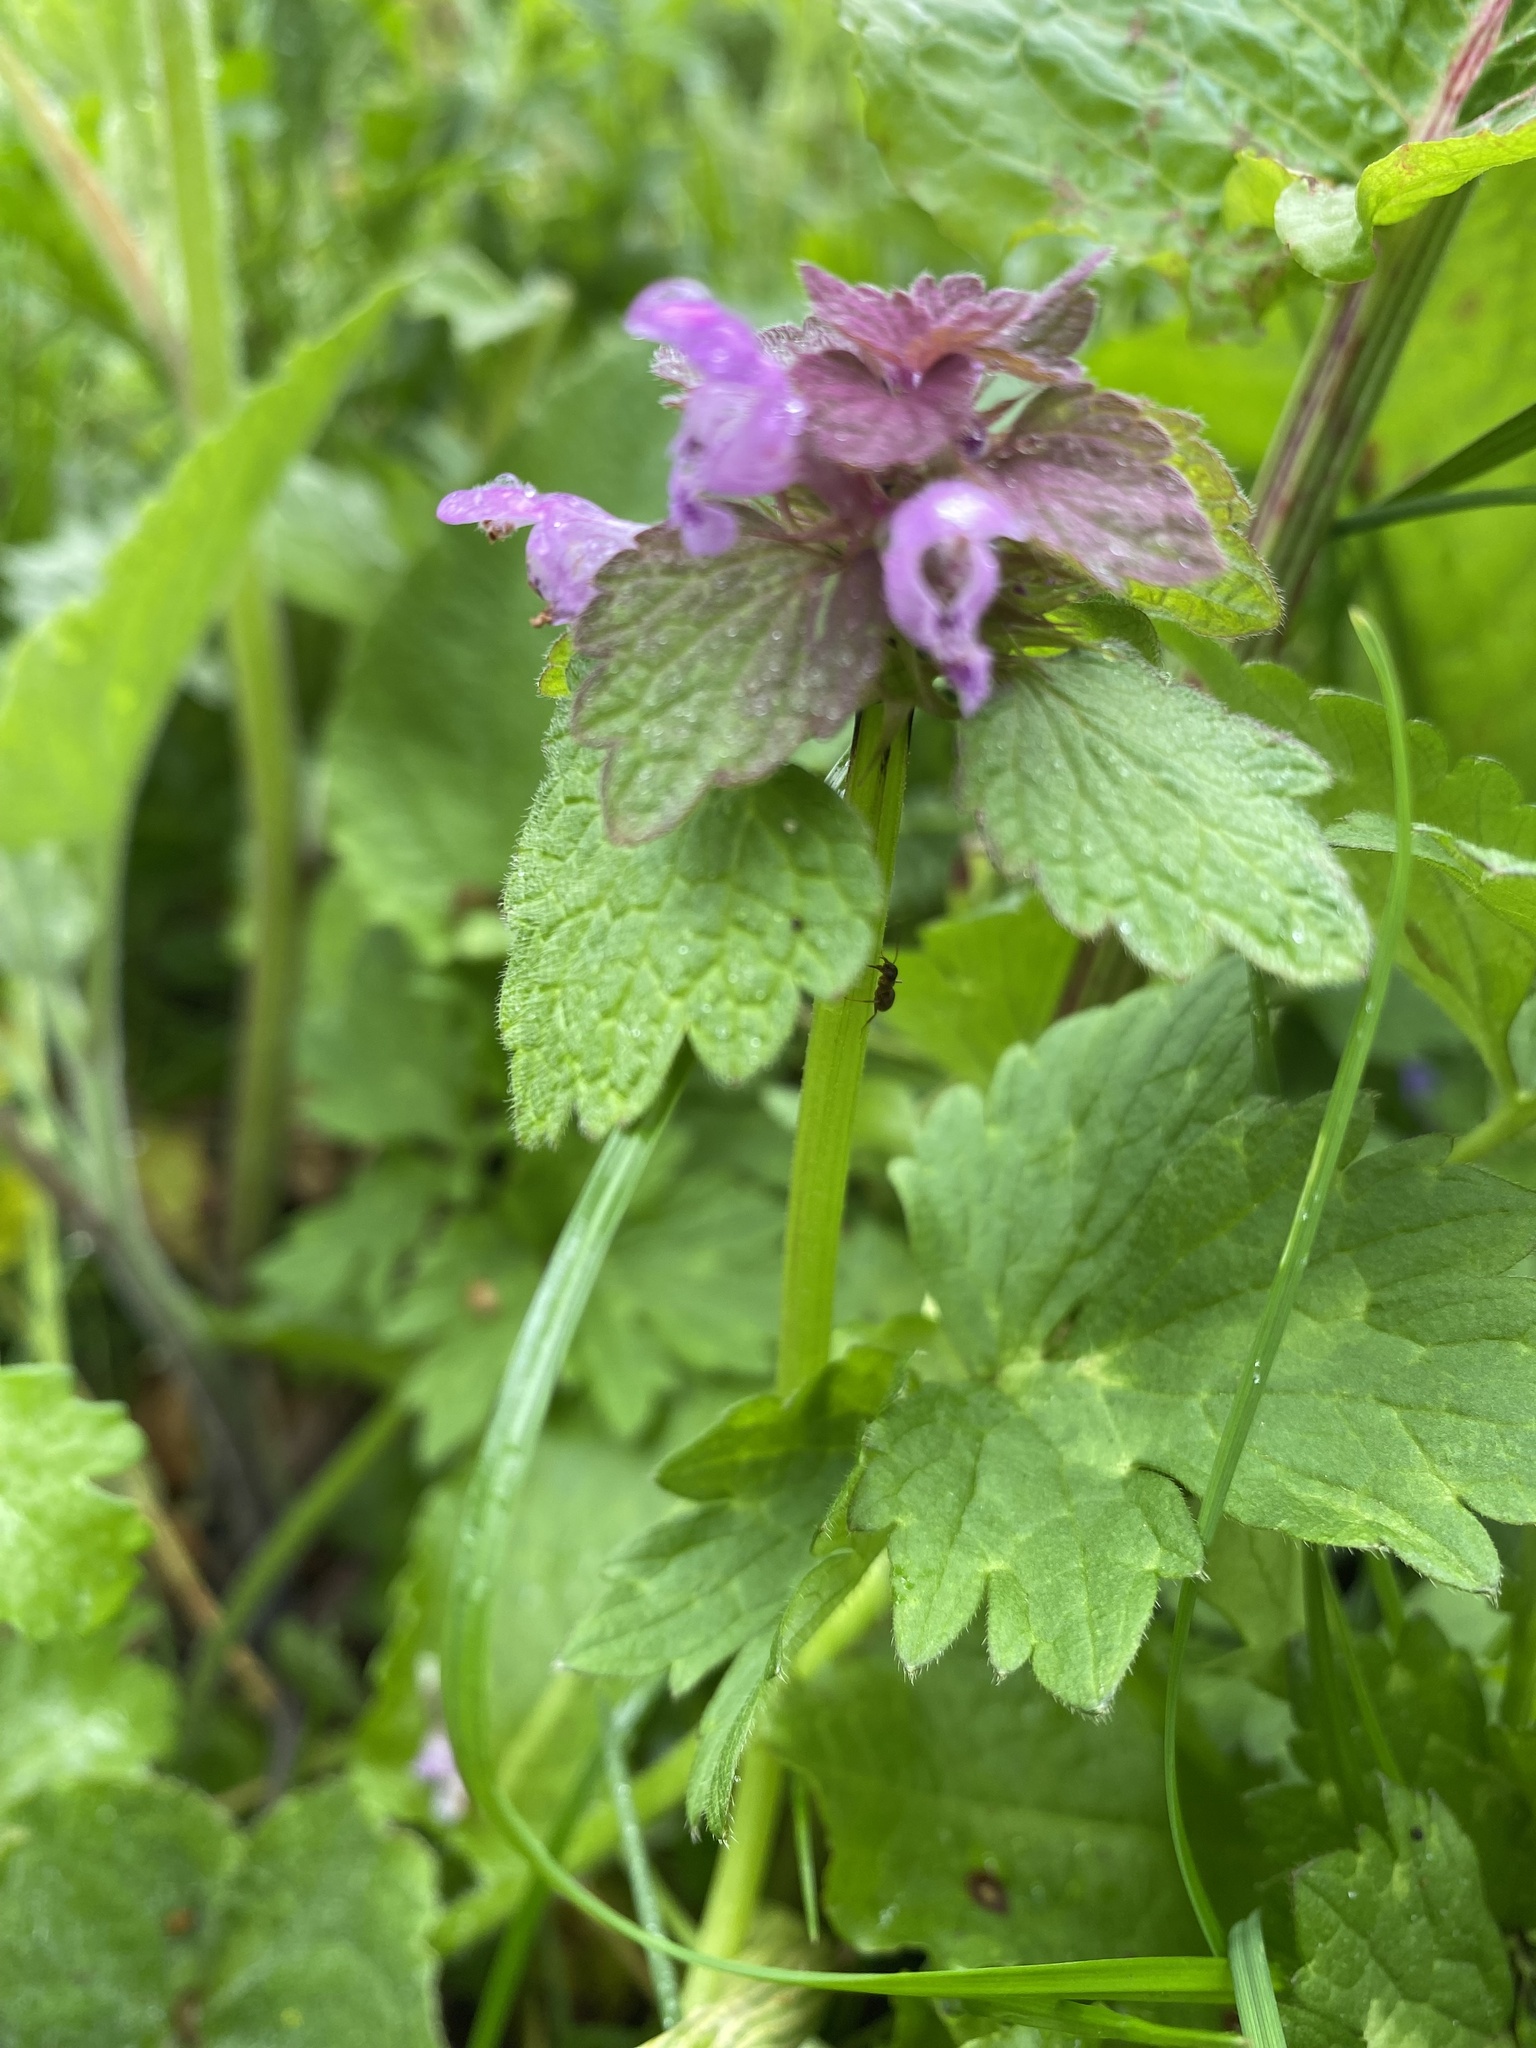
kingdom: Plantae
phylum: Tracheophyta
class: Magnoliopsida
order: Lamiales
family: Lamiaceae
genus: Lamium
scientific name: Lamium purpureum
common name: Red dead-nettle
